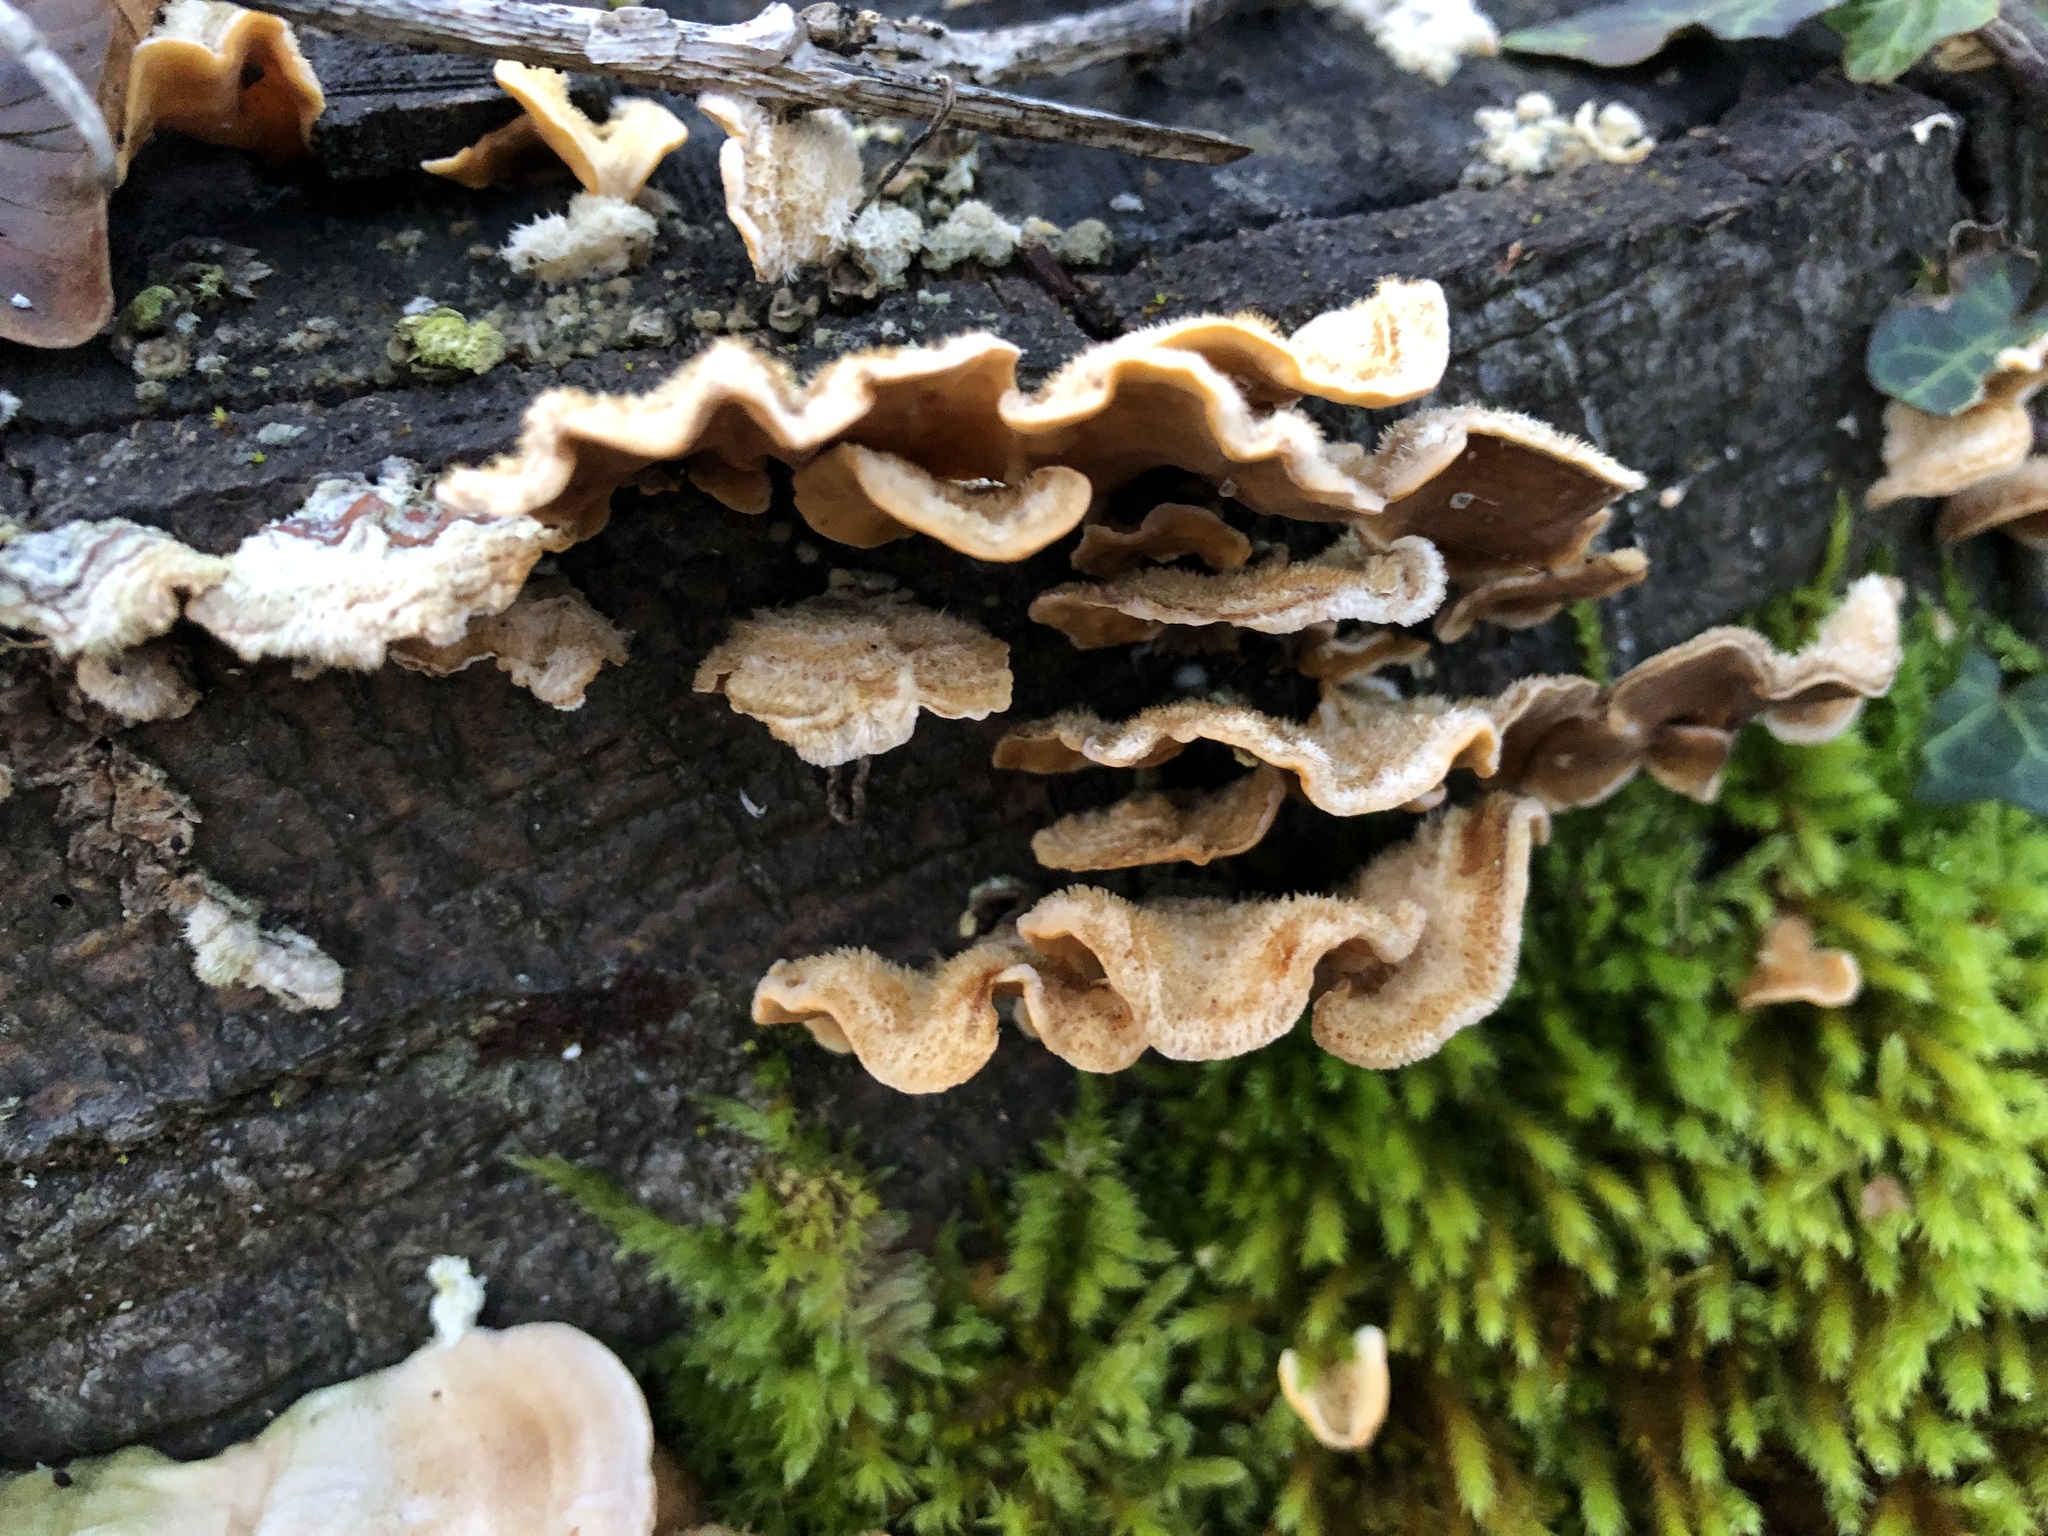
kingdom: Fungi
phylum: Basidiomycota
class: Agaricomycetes
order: Russulales
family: Stereaceae
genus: Stereum
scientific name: Stereum hirsutum
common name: Hairy curtain crust
